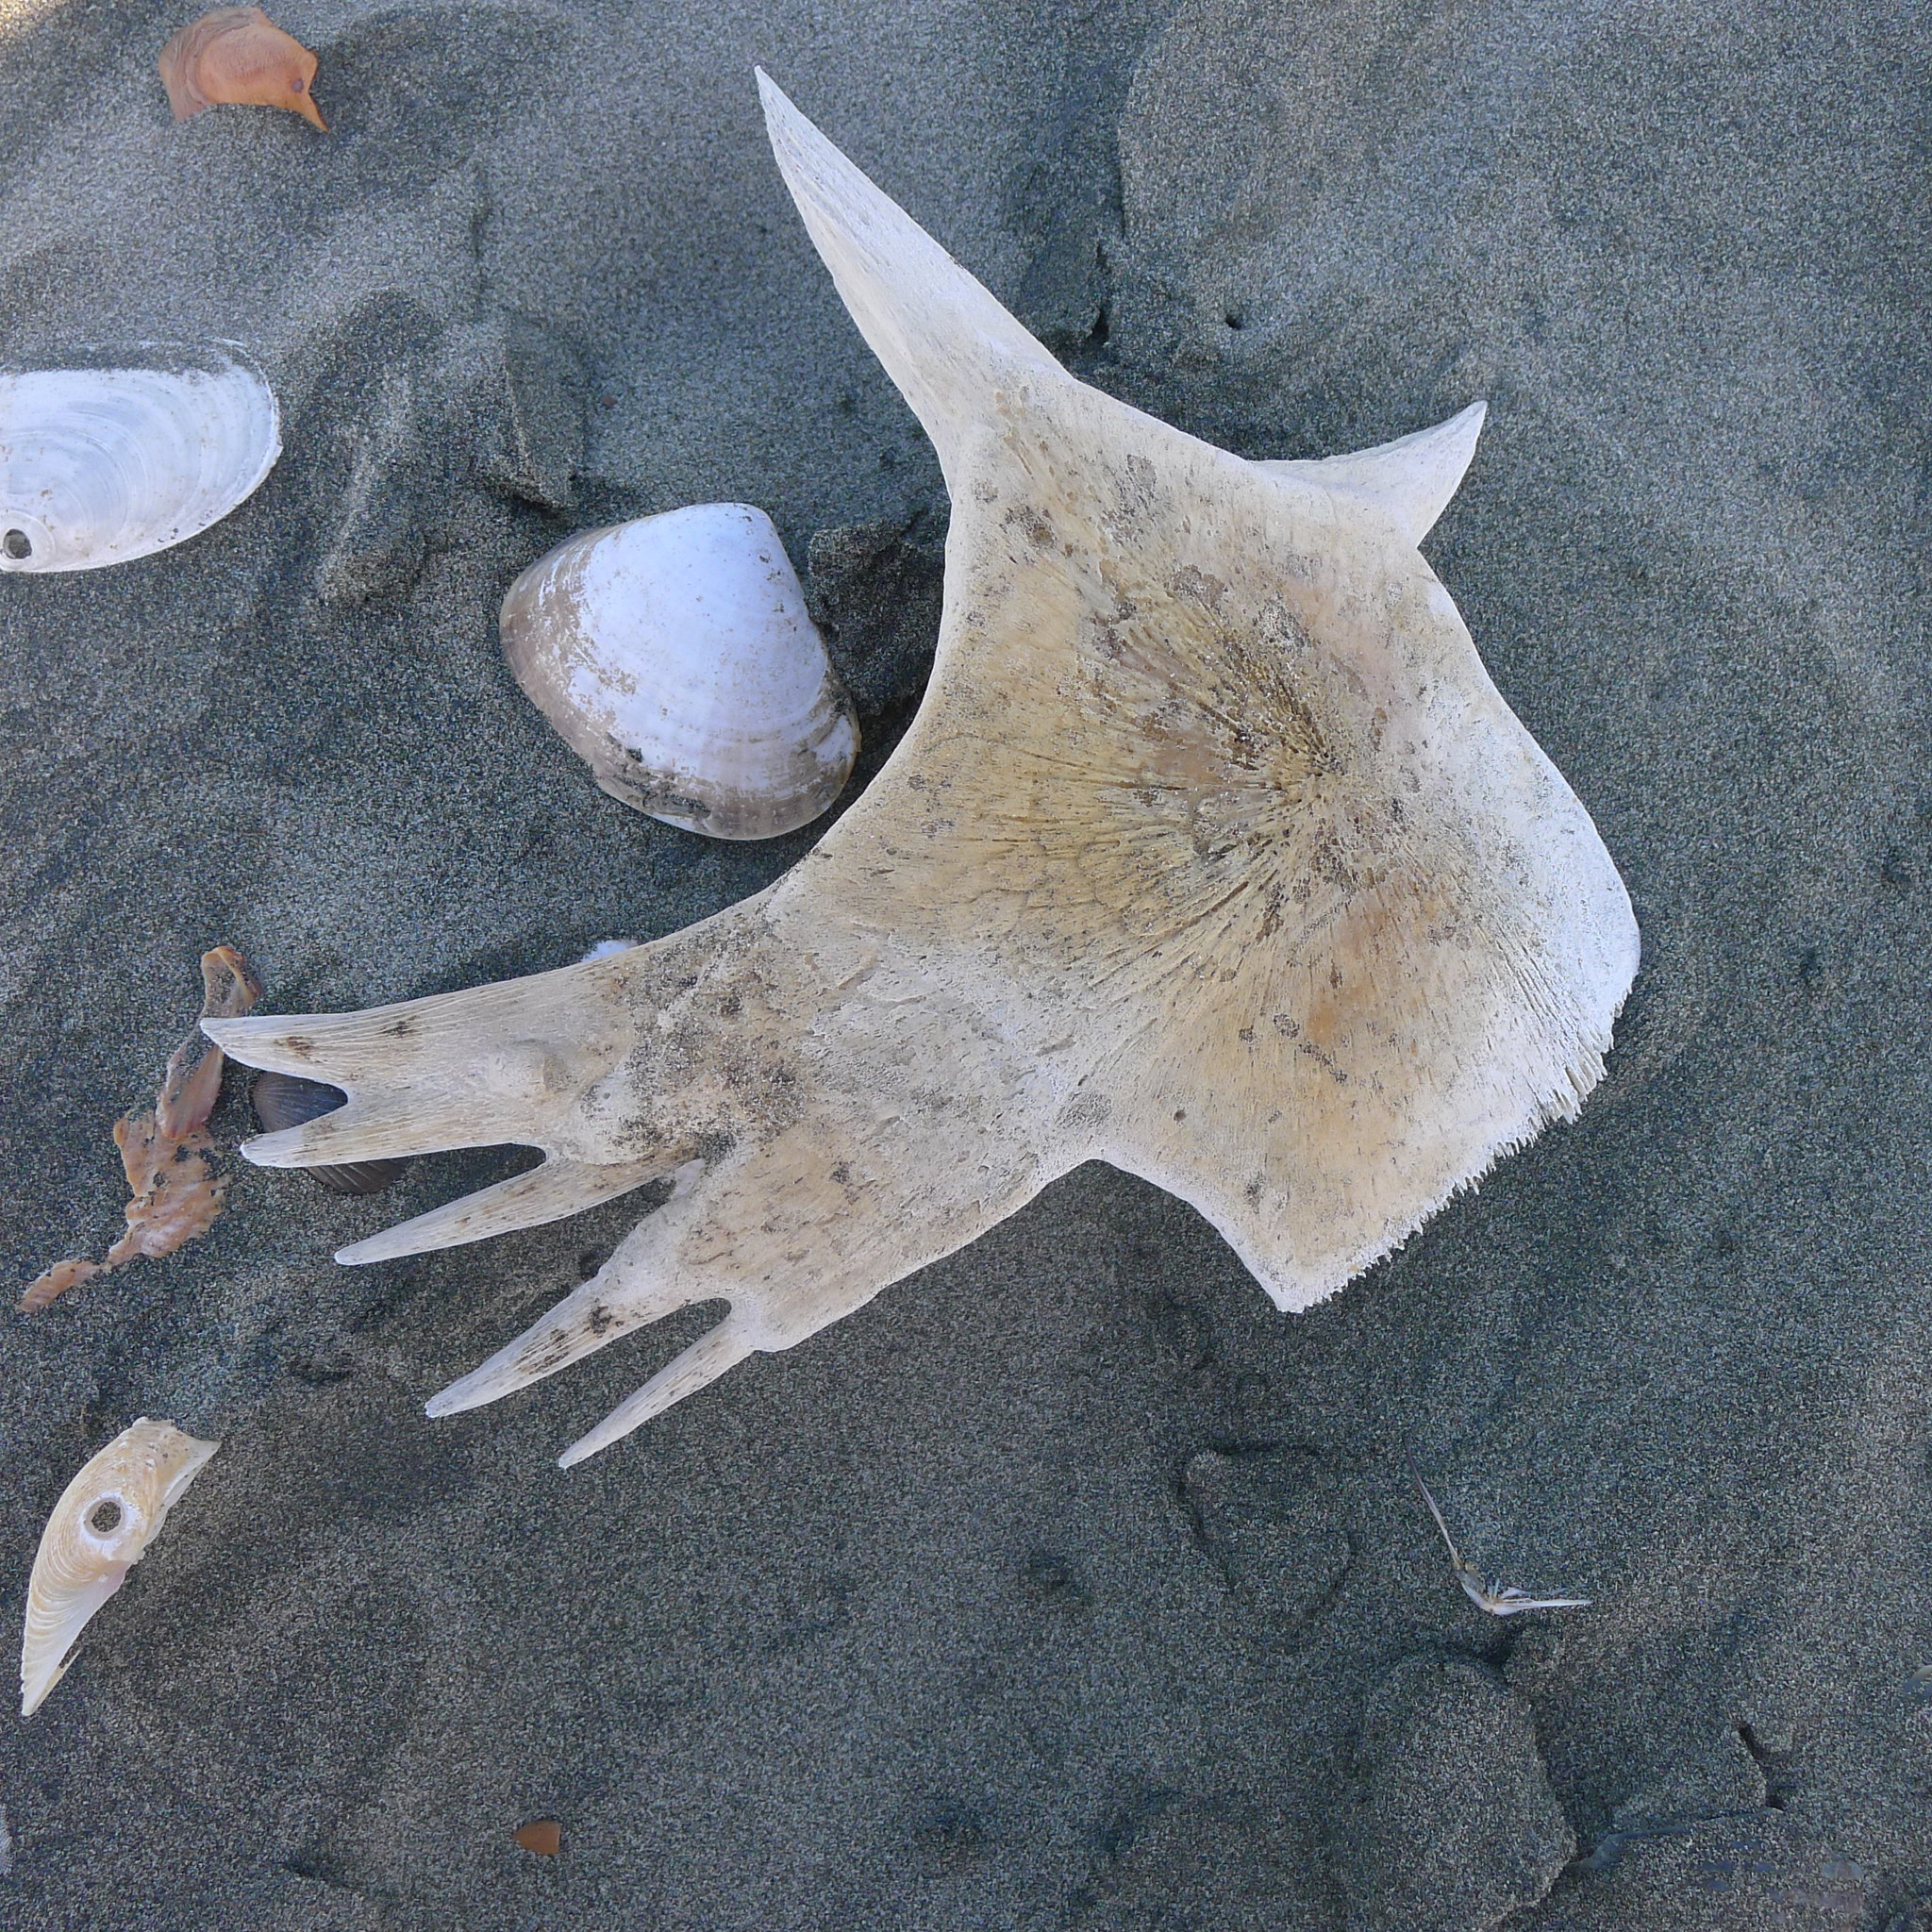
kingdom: Animalia
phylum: Chordata
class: Testudines
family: Cheloniidae
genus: Chelonia
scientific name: Chelonia mydas
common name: Green turtle
